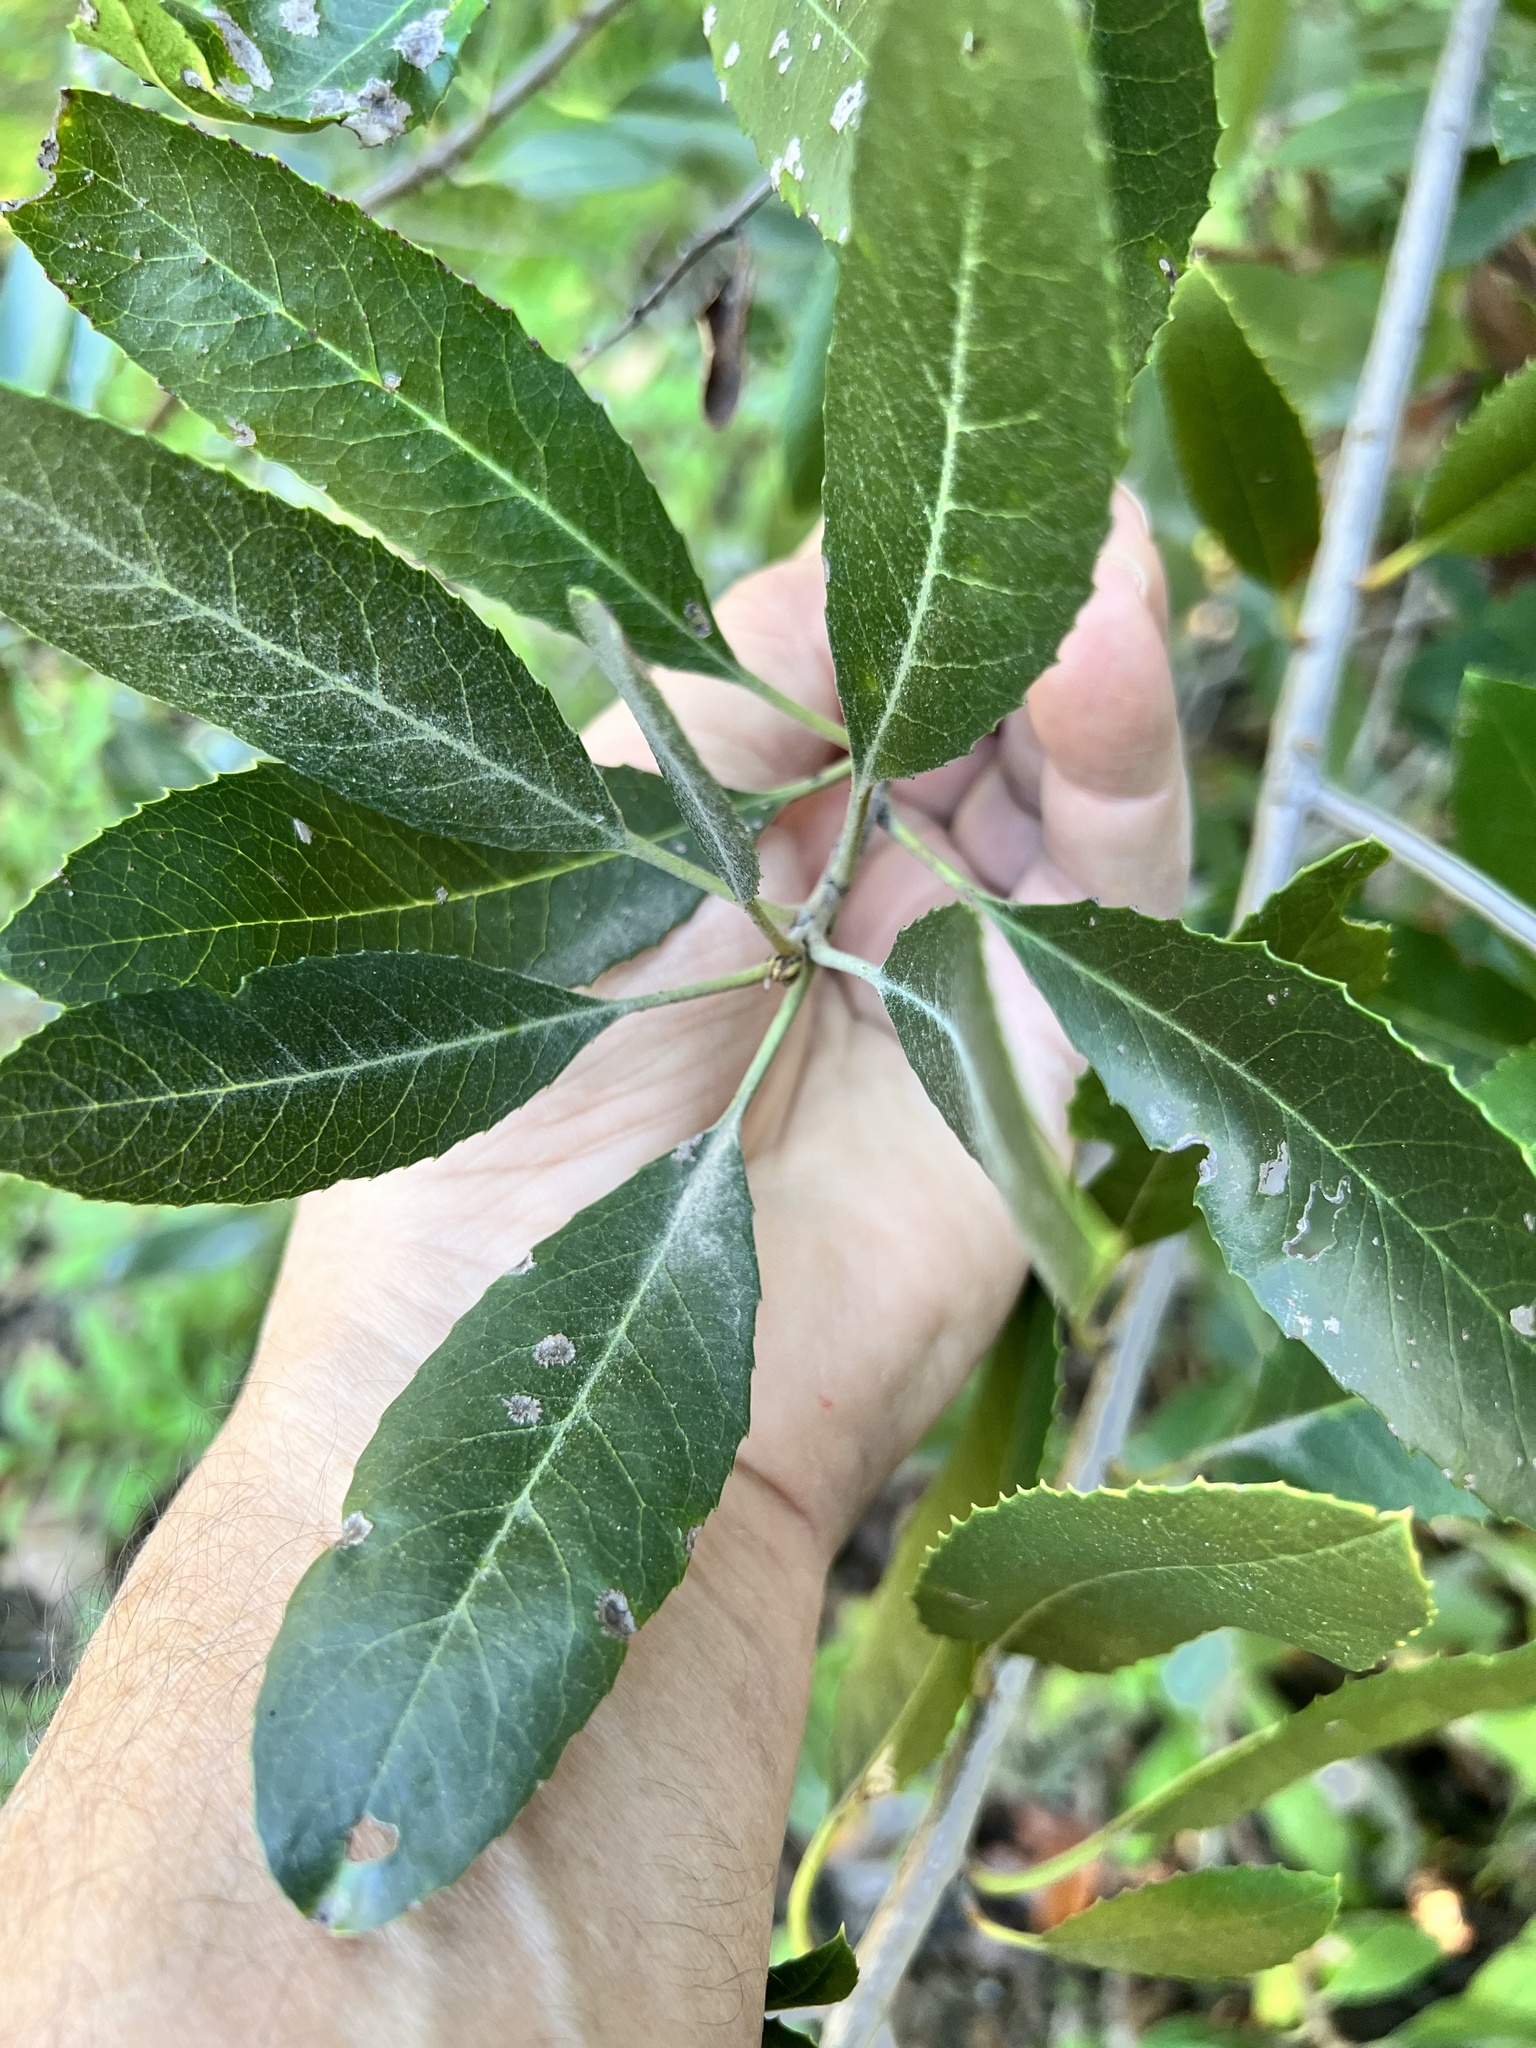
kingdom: Plantae
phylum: Tracheophyta
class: Magnoliopsida
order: Rosales
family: Rosaceae
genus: Heteromeles
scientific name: Heteromeles arbutifolia
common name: California-holly
